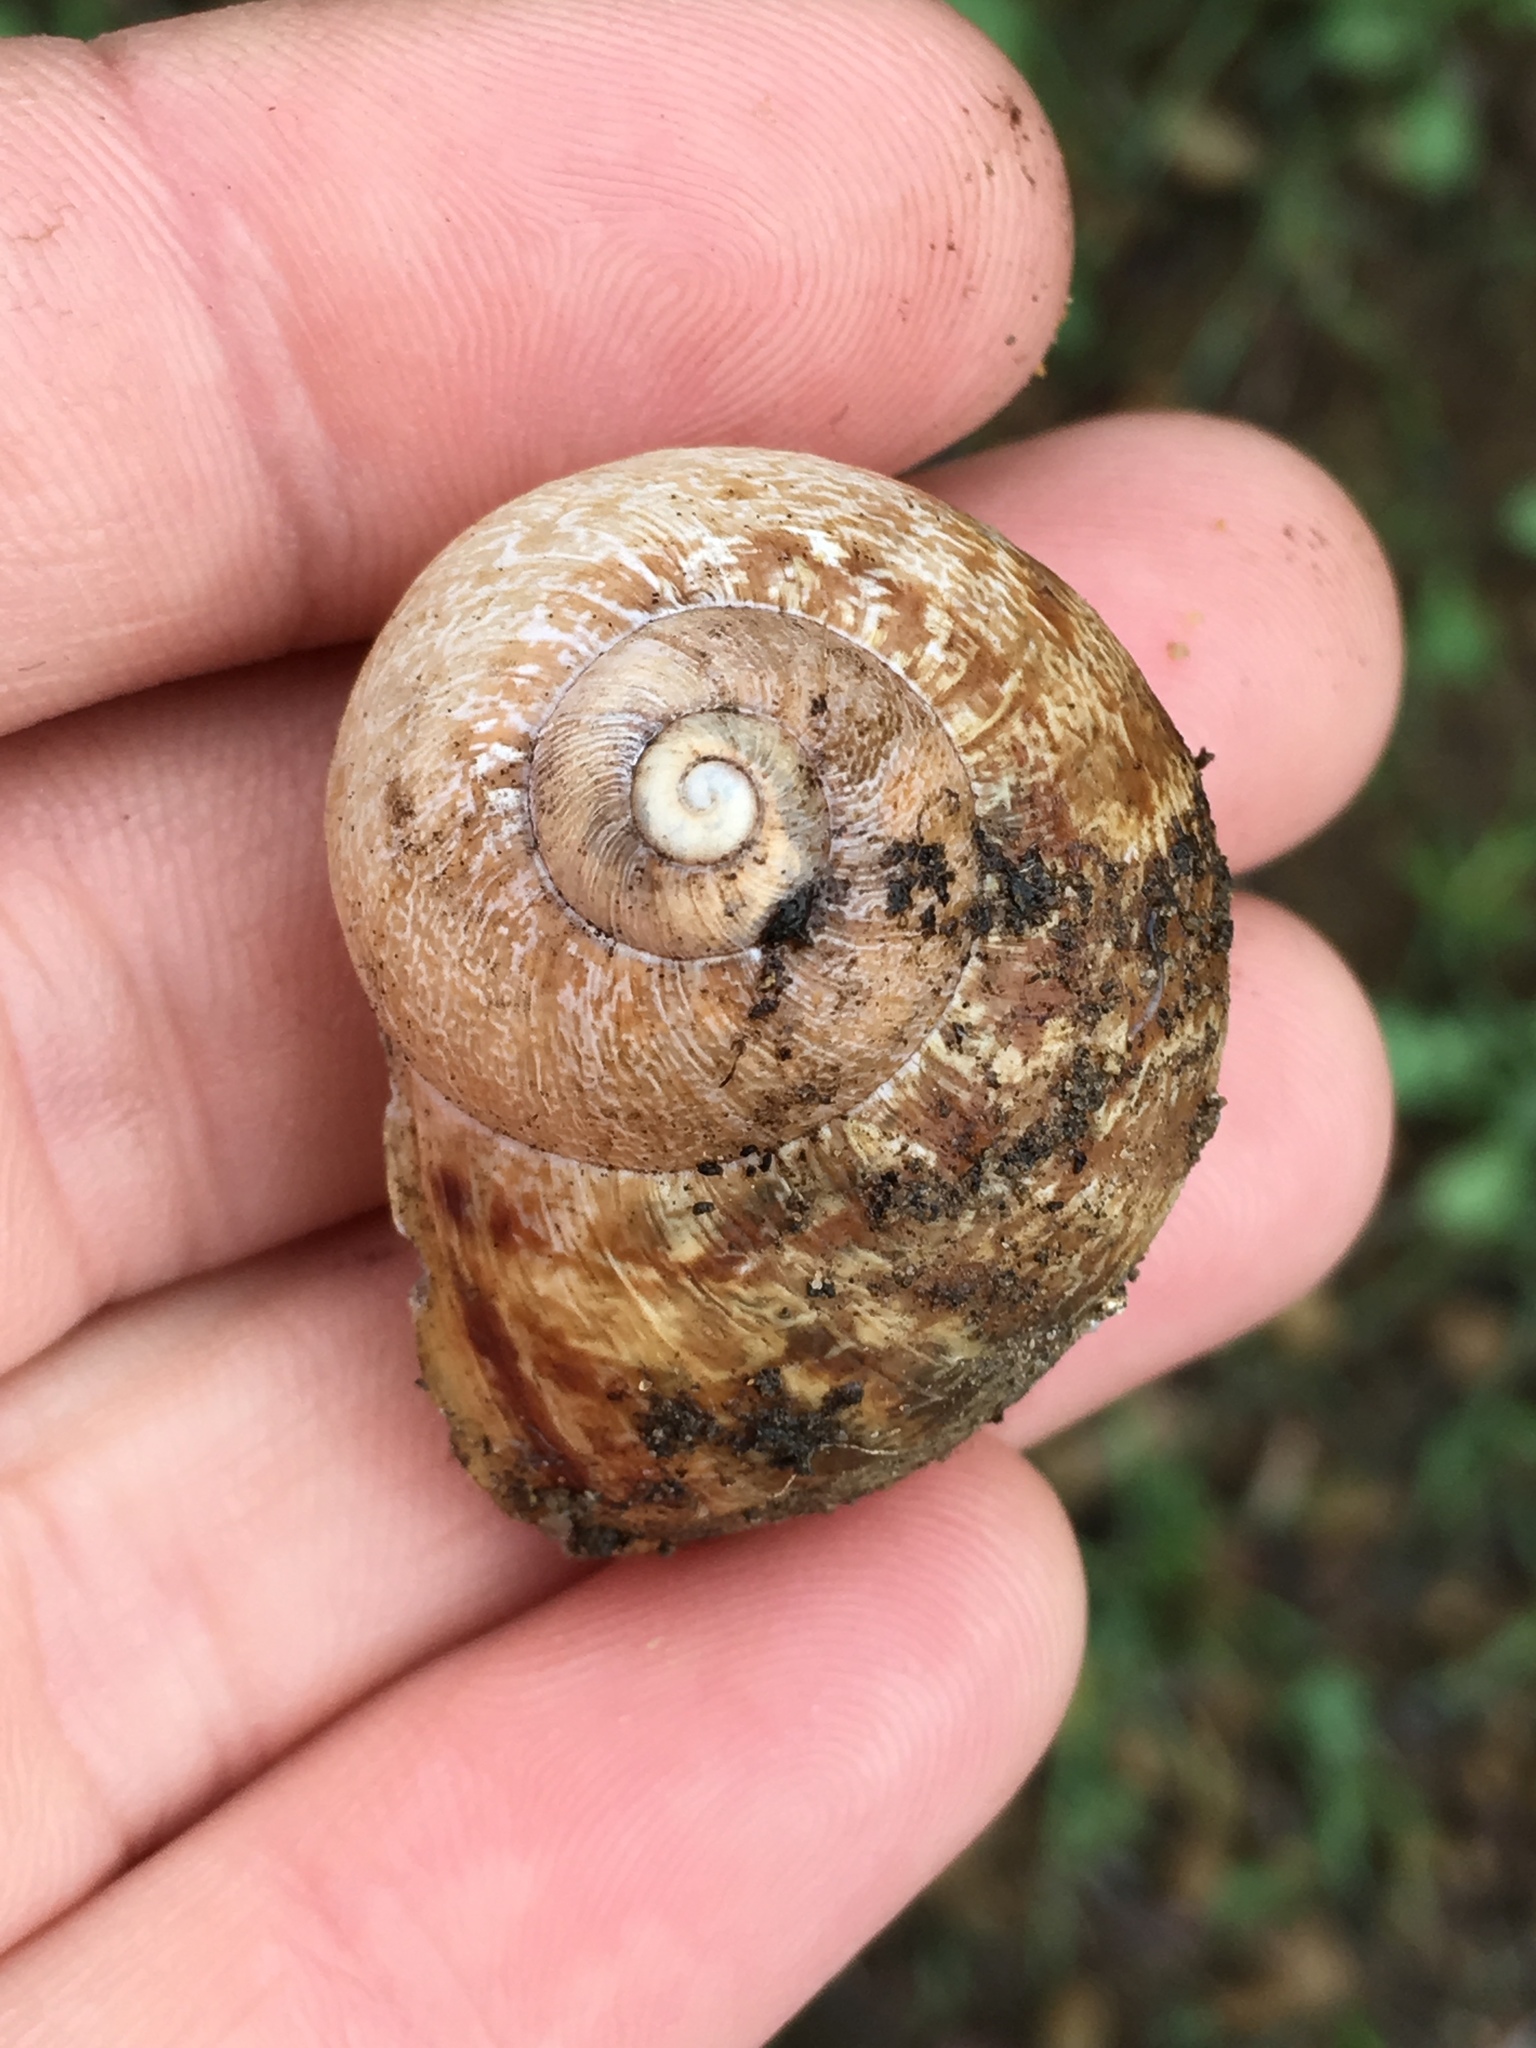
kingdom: Animalia
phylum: Mollusca
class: Gastropoda
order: Stylommatophora
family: Helicidae
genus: Cornu
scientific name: Cornu aspersum
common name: Brown garden snail
